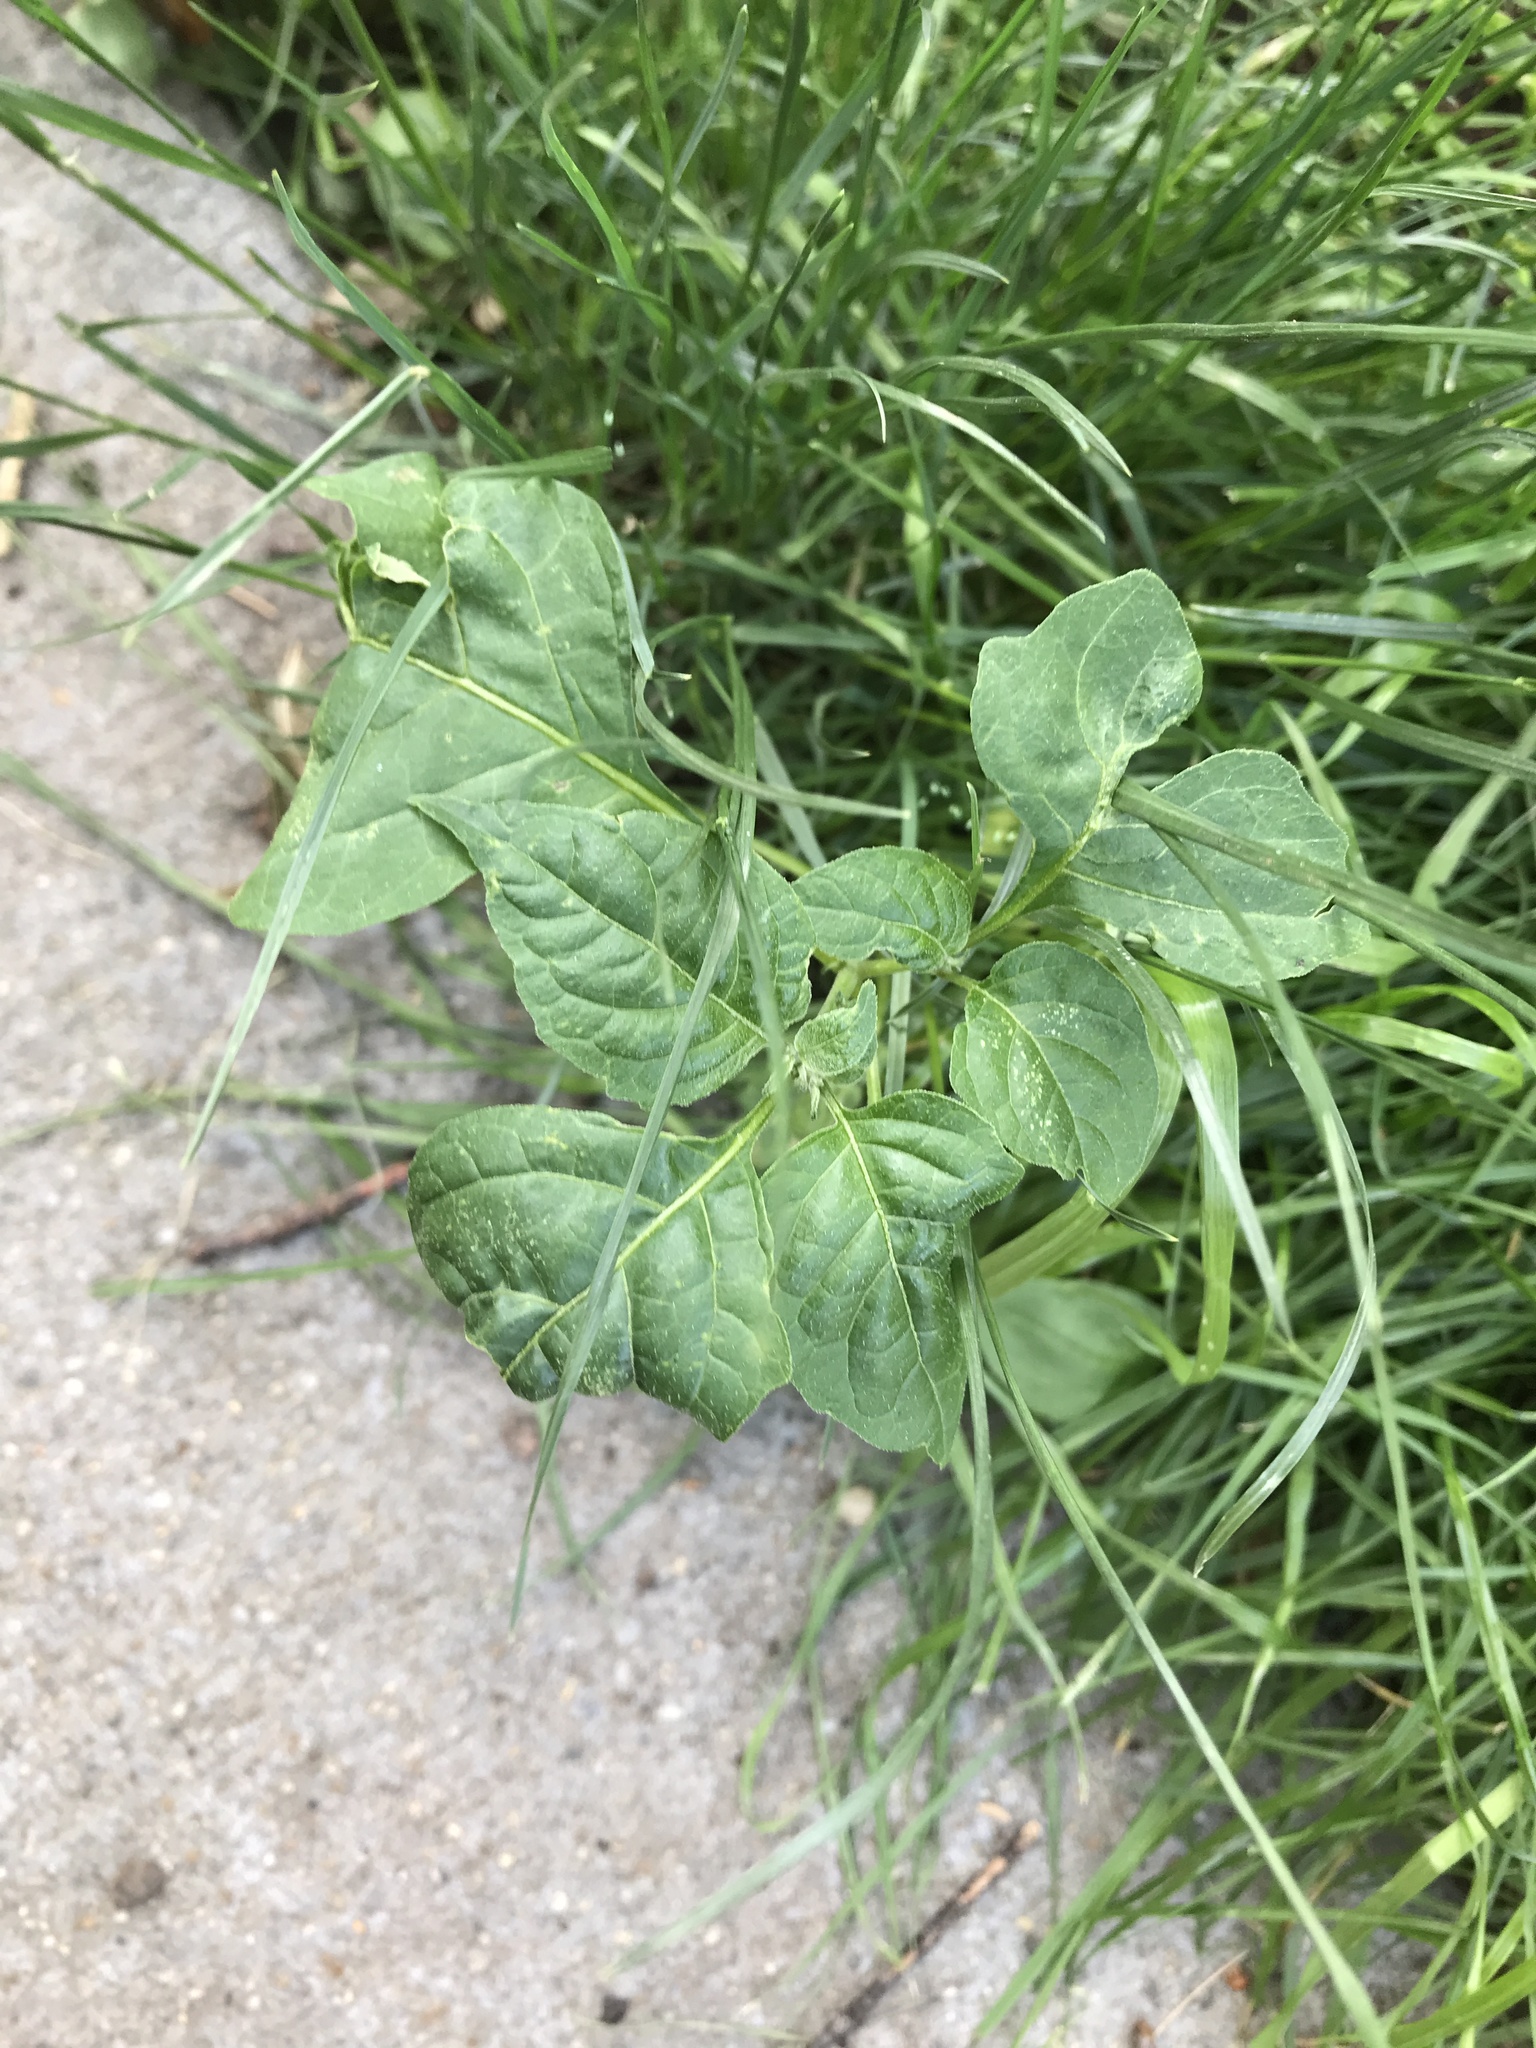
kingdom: Plantae
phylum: Tracheophyta
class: Magnoliopsida
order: Solanales
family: Solanaceae
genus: Solanum
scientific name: Solanum dulcamara
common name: Climbing nightshade
